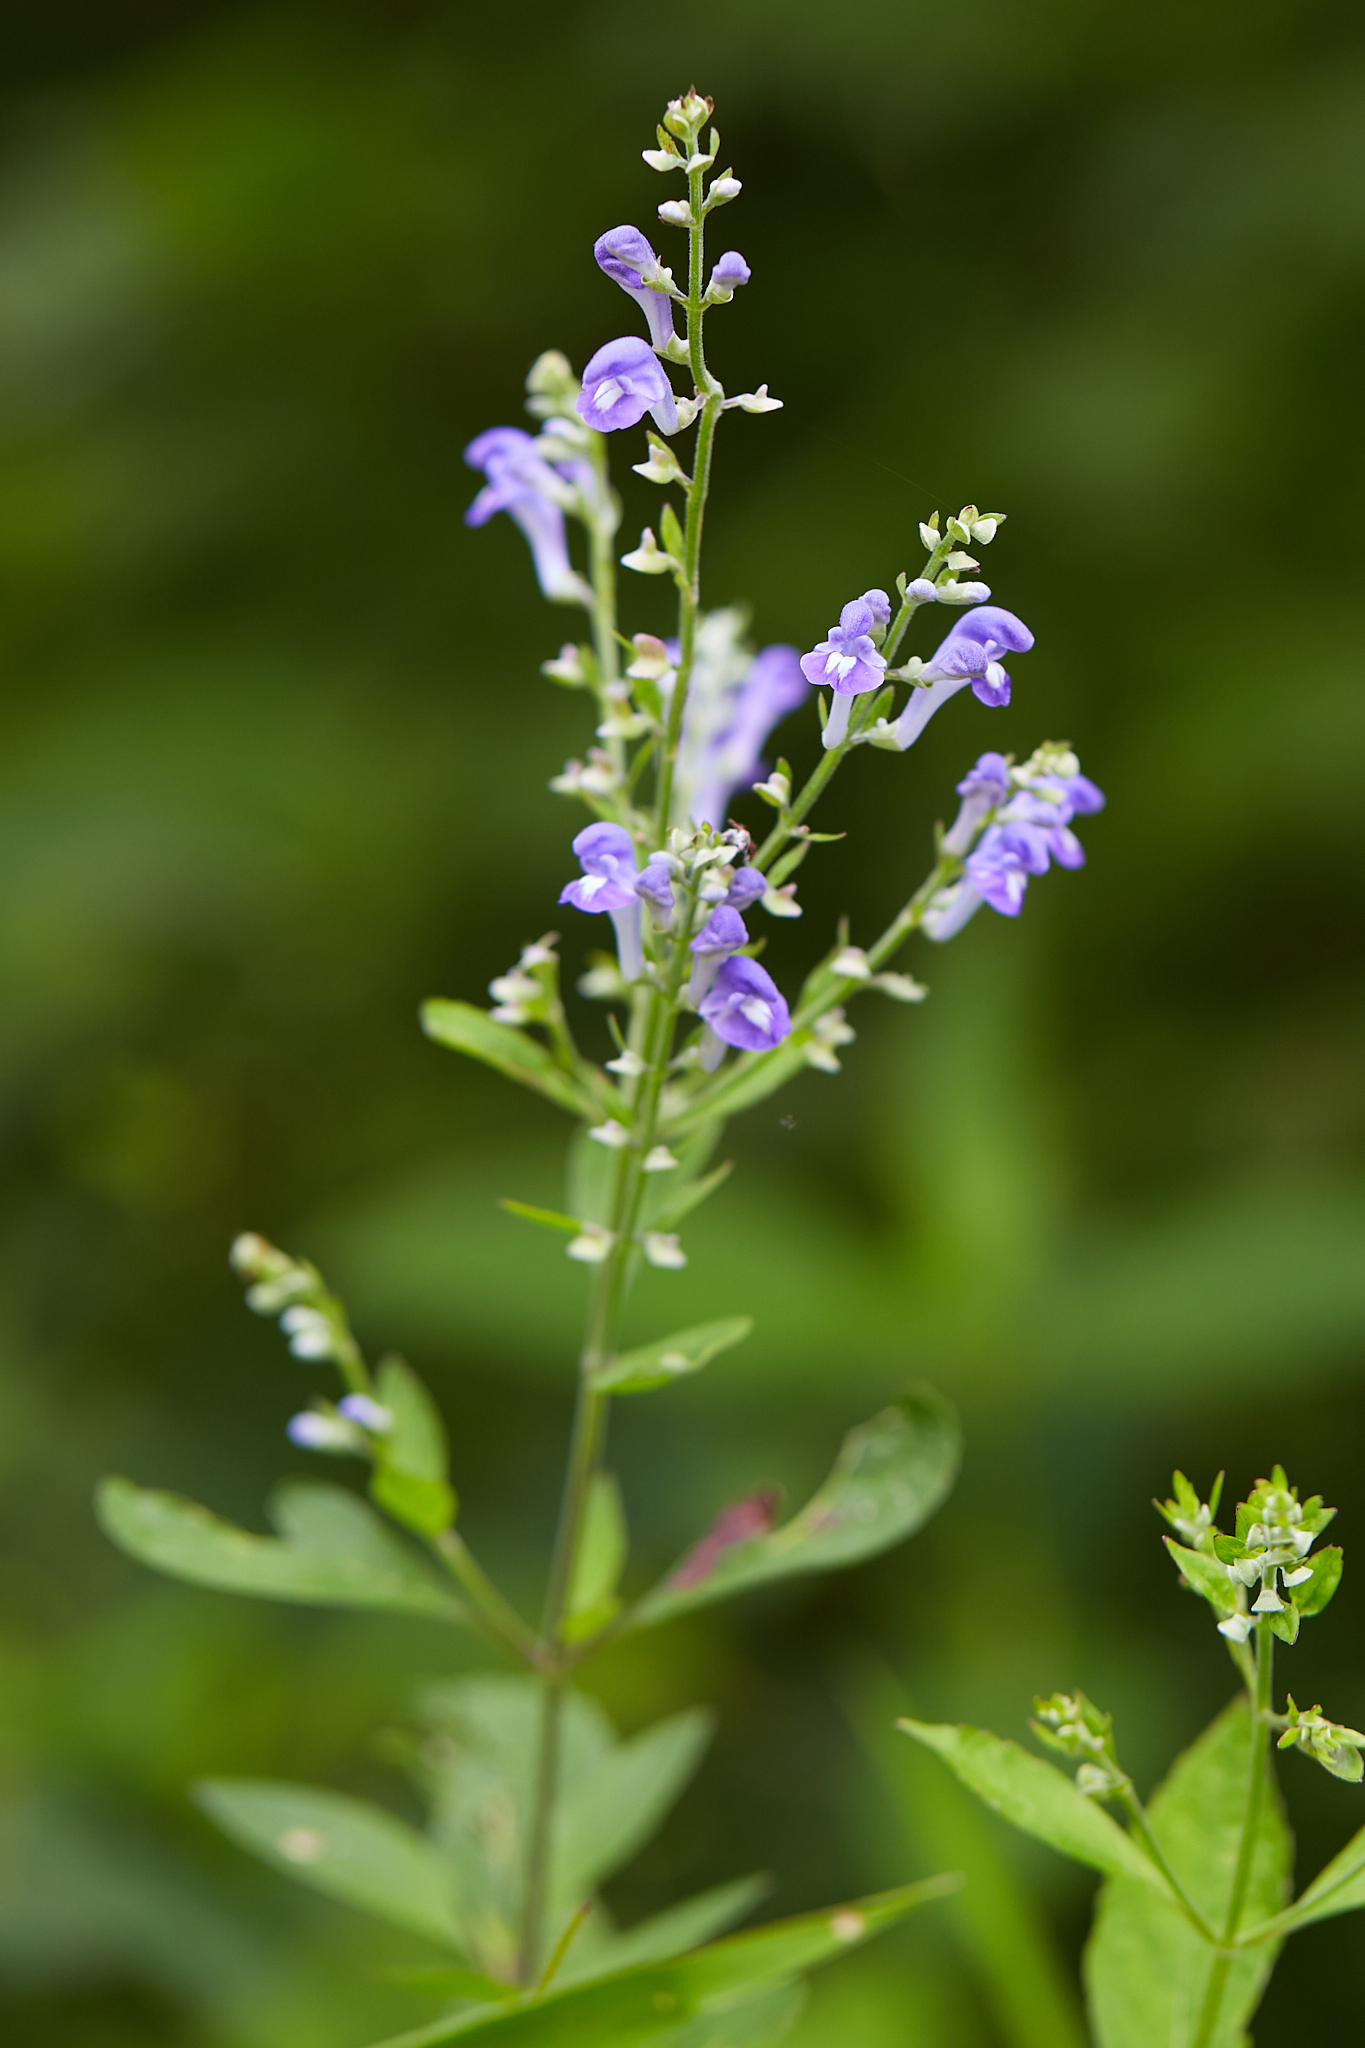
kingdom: Plantae
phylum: Tracheophyta
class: Magnoliopsida
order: Lamiales
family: Lamiaceae
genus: Scutellaria
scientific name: Scutellaria incana
